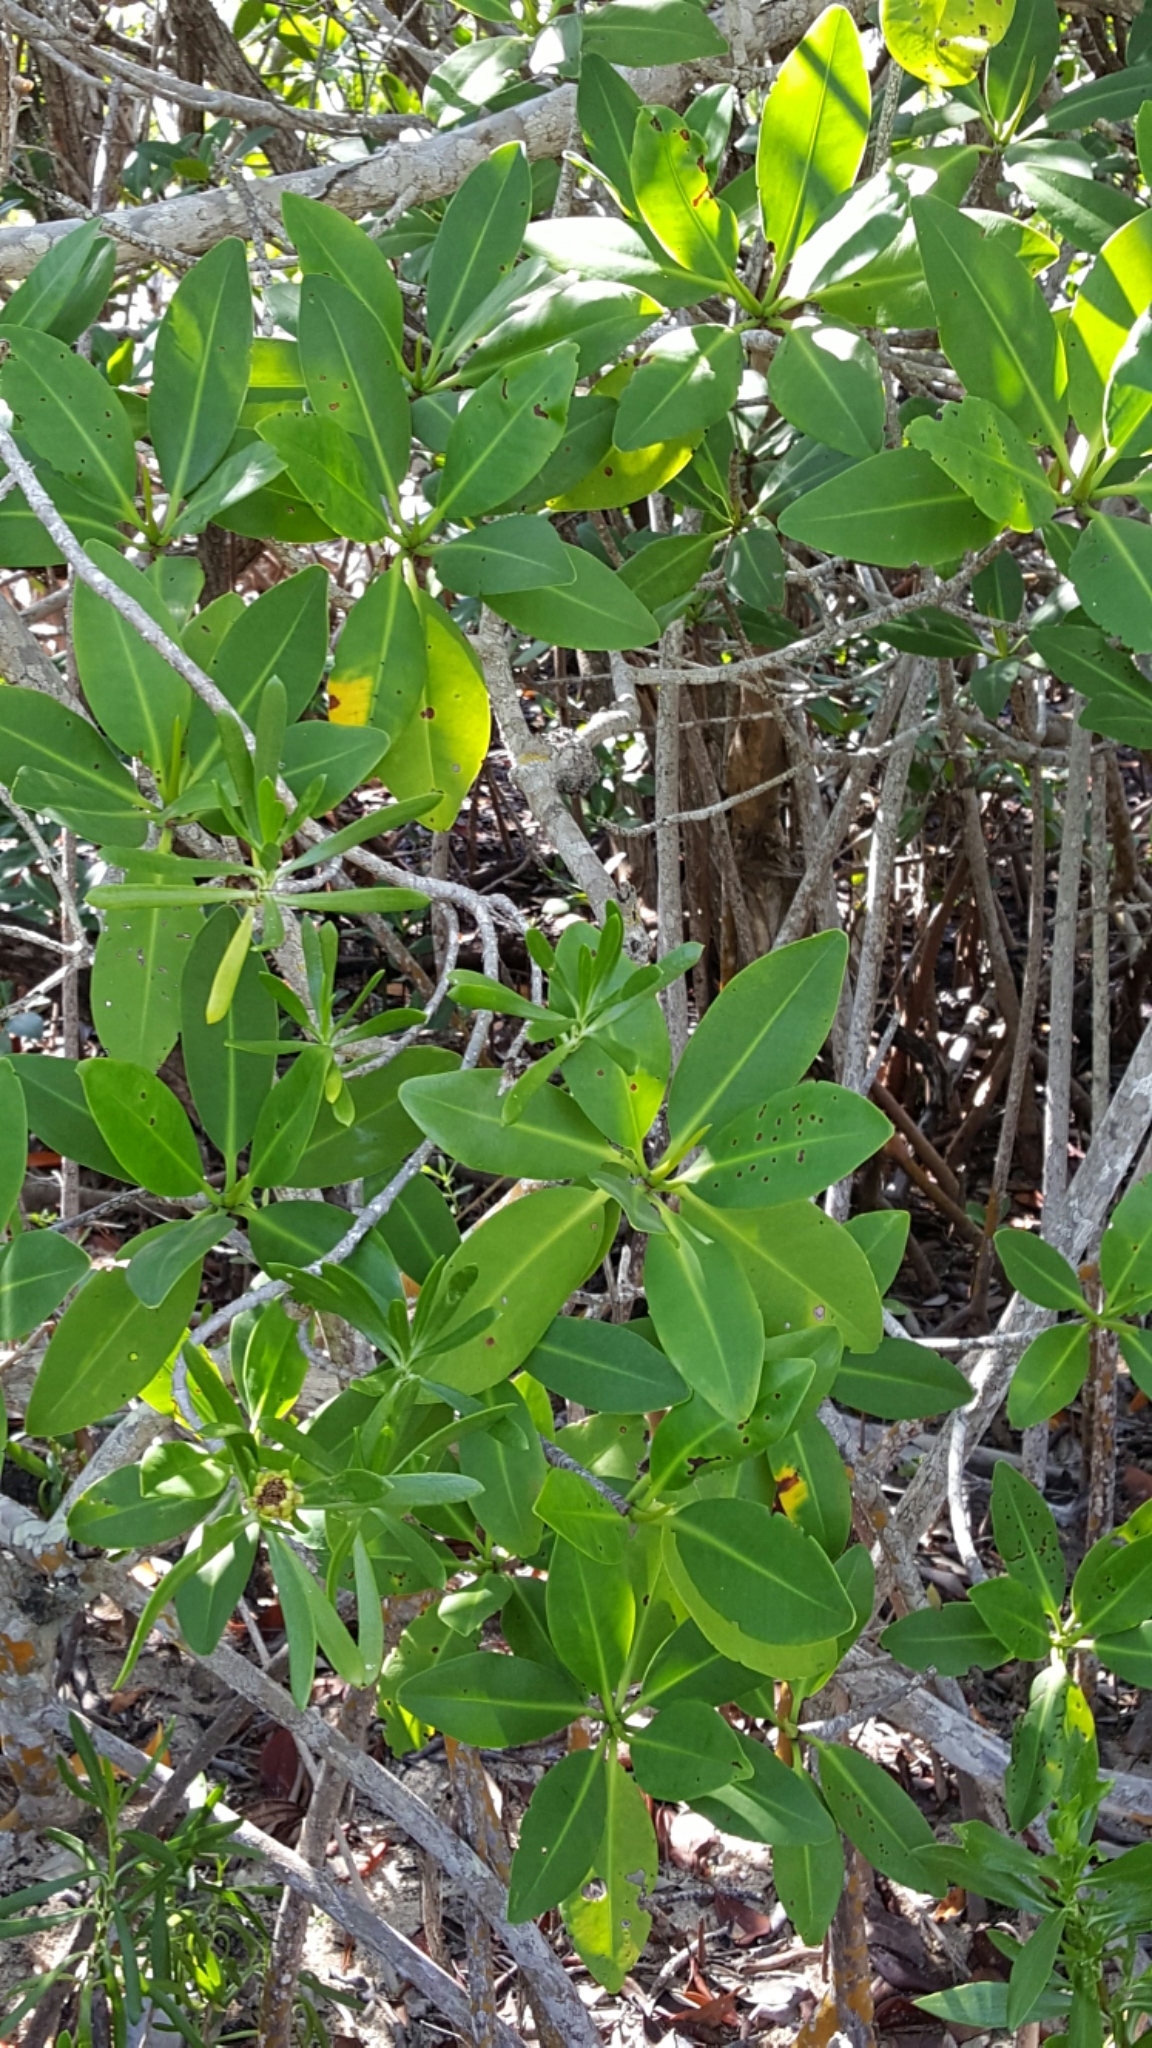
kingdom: Plantae
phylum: Tracheophyta
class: Magnoliopsida
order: Malpighiales
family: Rhizophoraceae
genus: Rhizophora
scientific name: Rhizophora mangle
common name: Red mangrove
